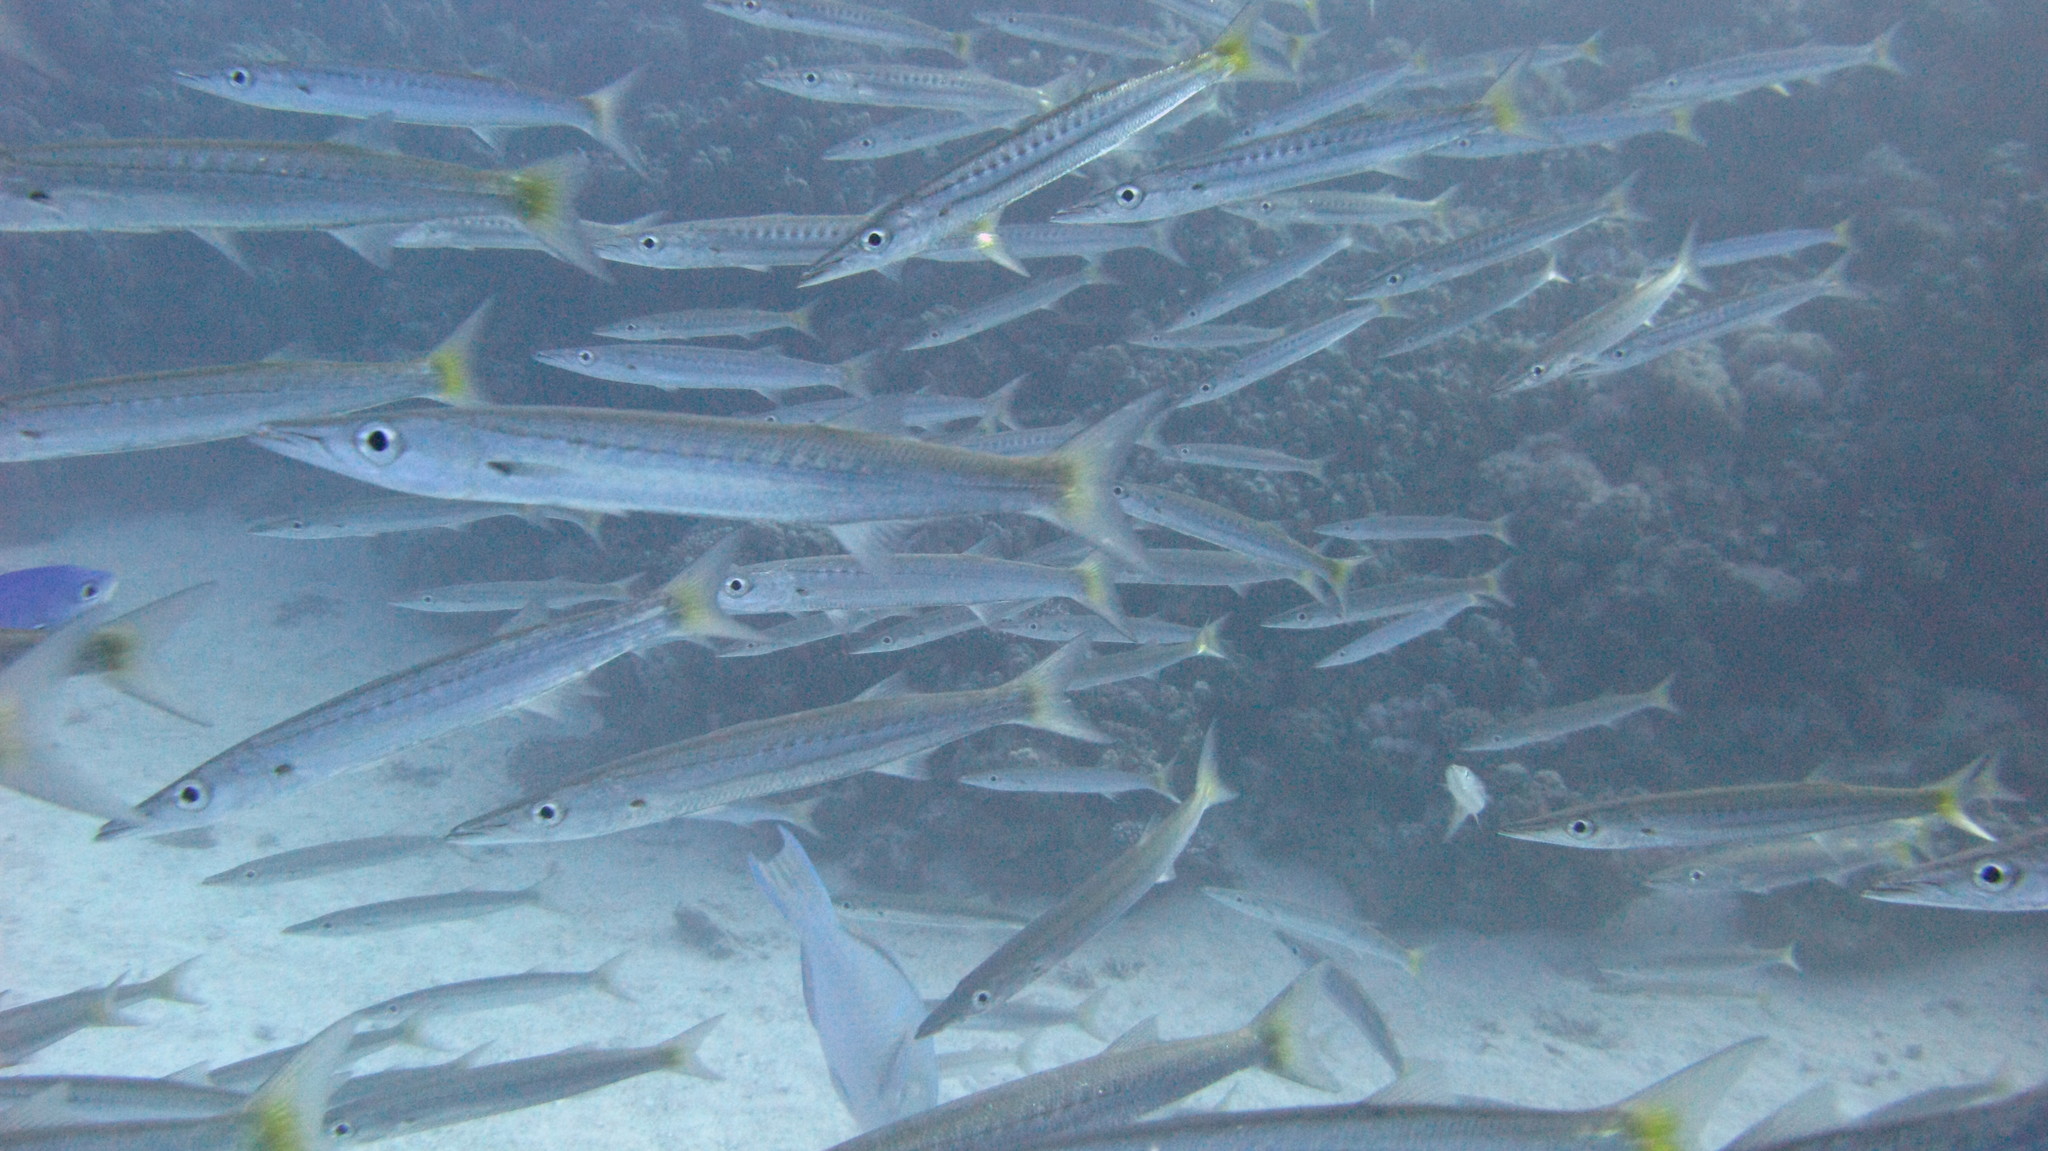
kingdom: Animalia
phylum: Chordata
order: Perciformes
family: Sphyraenidae
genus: Sphyraena
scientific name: Sphyraena flavicauda
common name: Yellowtail barracuda
